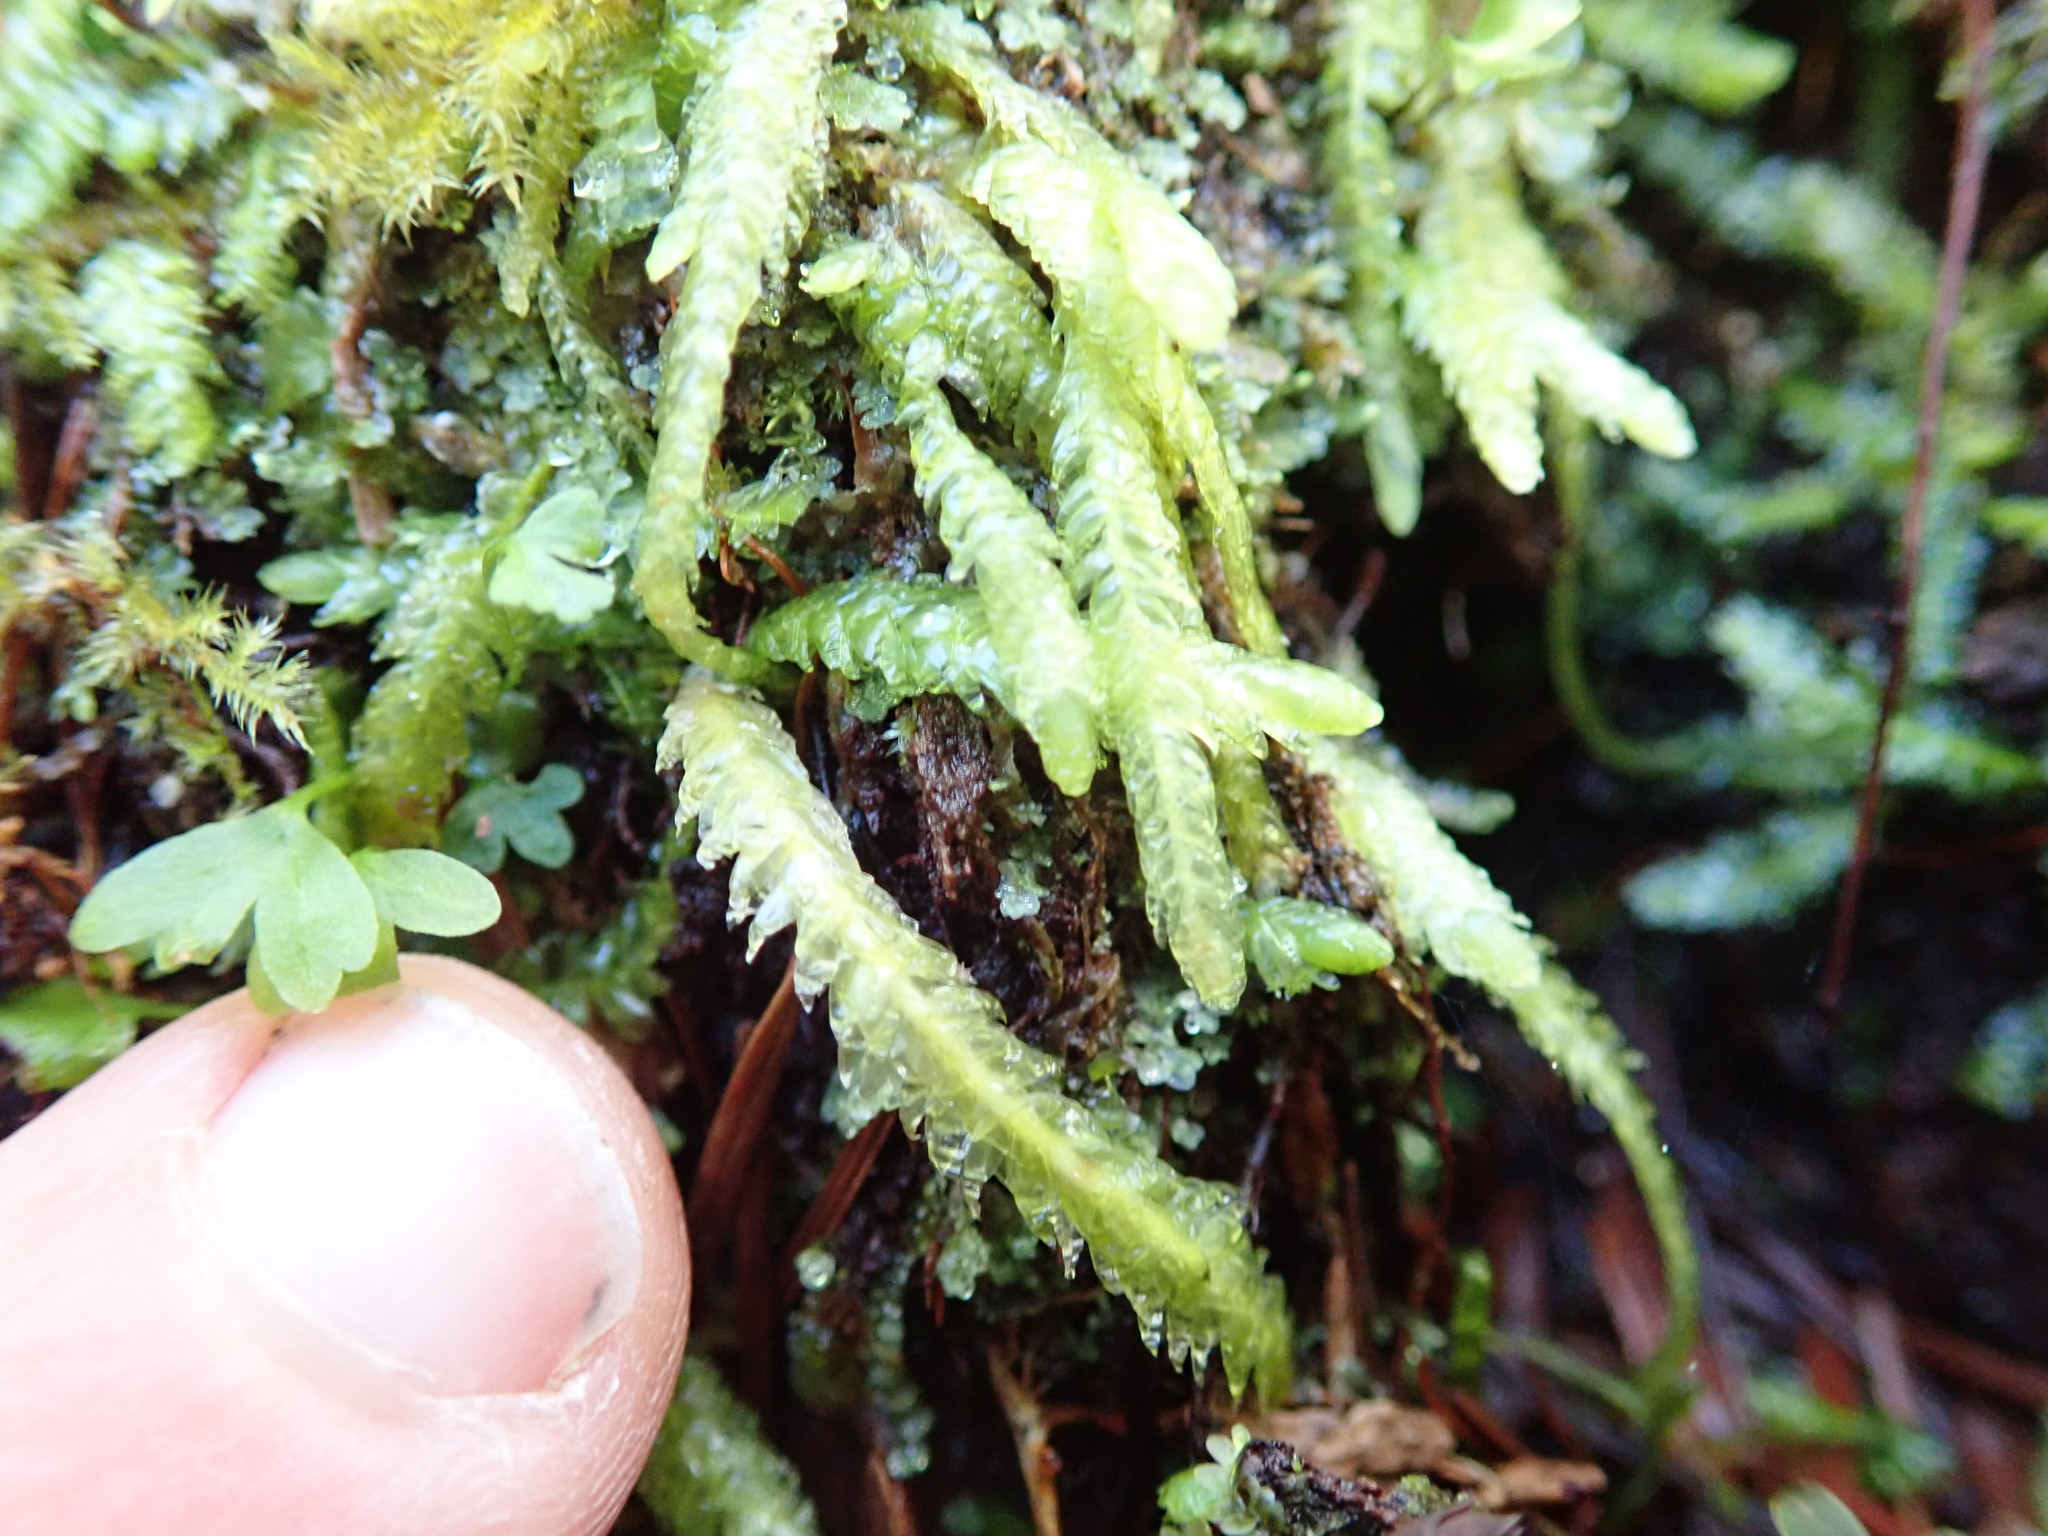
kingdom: Plantae
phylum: Bryophyta
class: Bryopsida
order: Hypnales
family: Plagiotheciaceae
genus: Plagiothecium
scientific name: Plagiothecium undulatum
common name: Waved silk-moss
